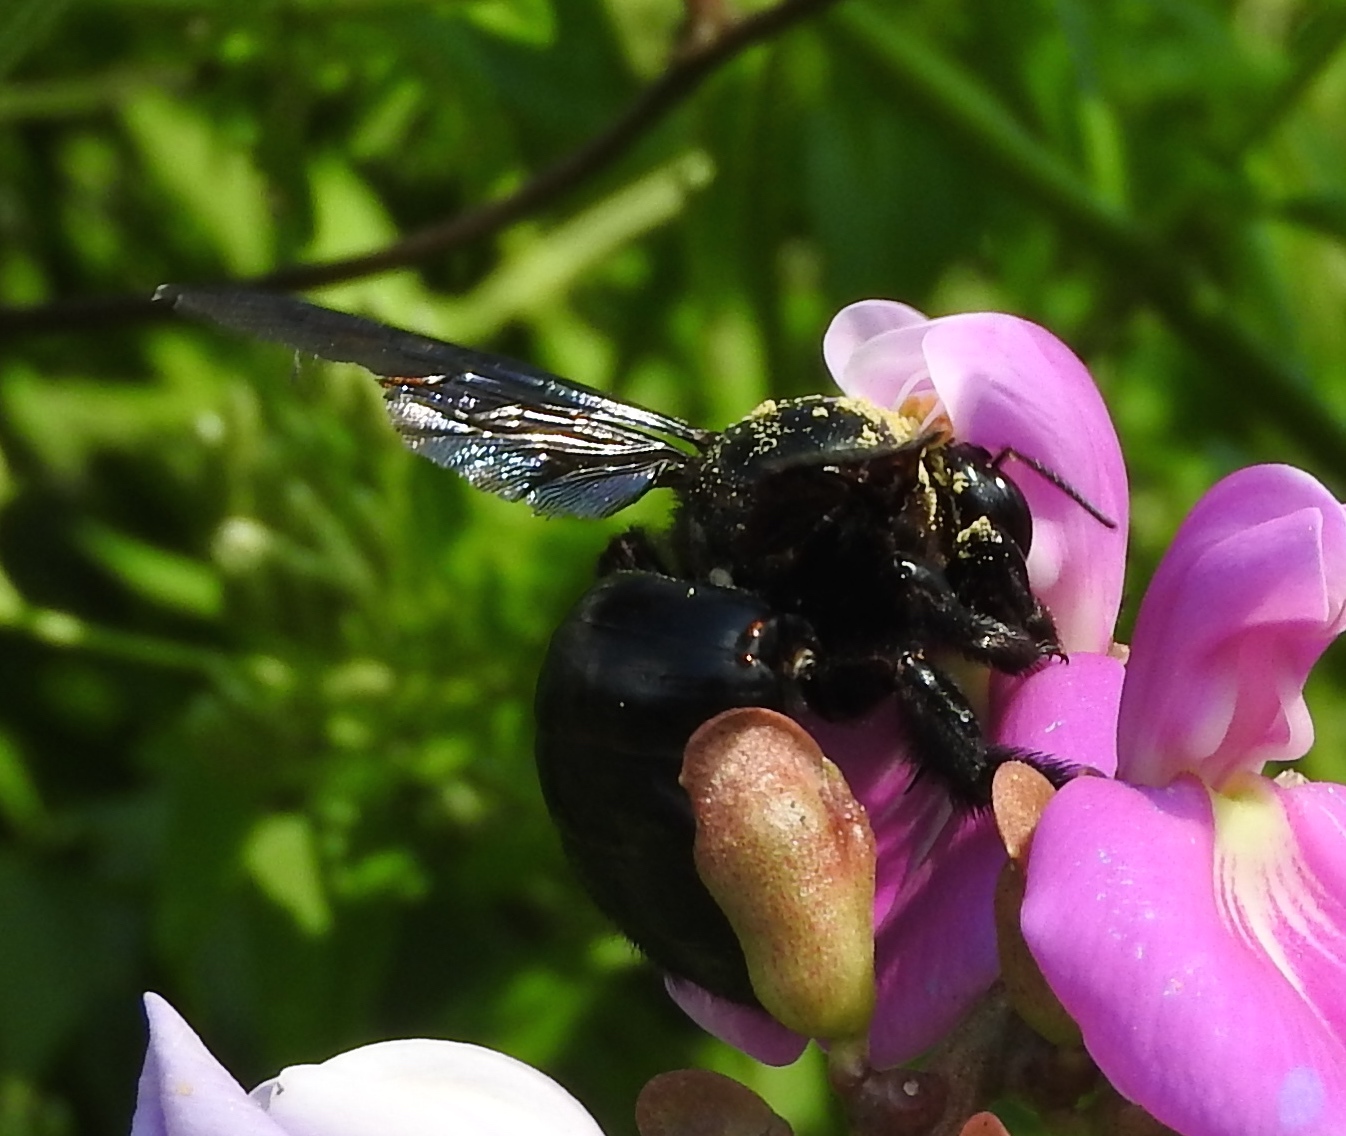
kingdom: Animalia
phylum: Arthropoda
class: Insecta
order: Hymenoptera
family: Apidae
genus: Xylocopa
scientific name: Xylocopa fimbriata
